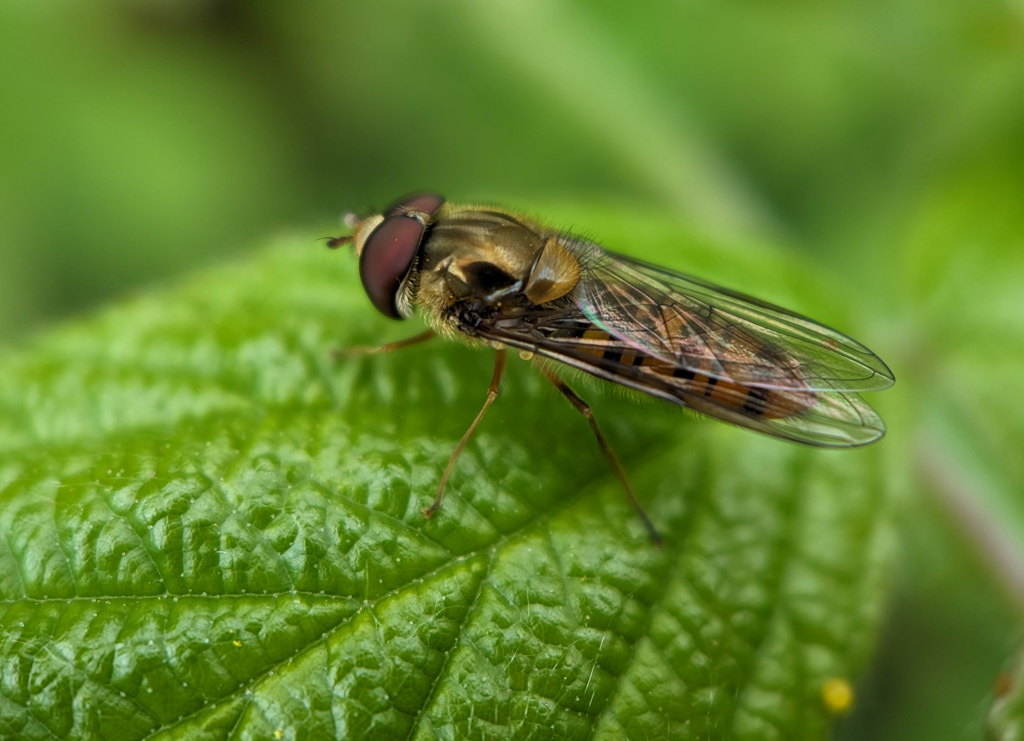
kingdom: Animalia
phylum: Arthropoda
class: Insecta
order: Diptera
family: Syrphidae
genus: Episyrphus
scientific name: Episyrphus balteatus
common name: Marmalade hoverfly
